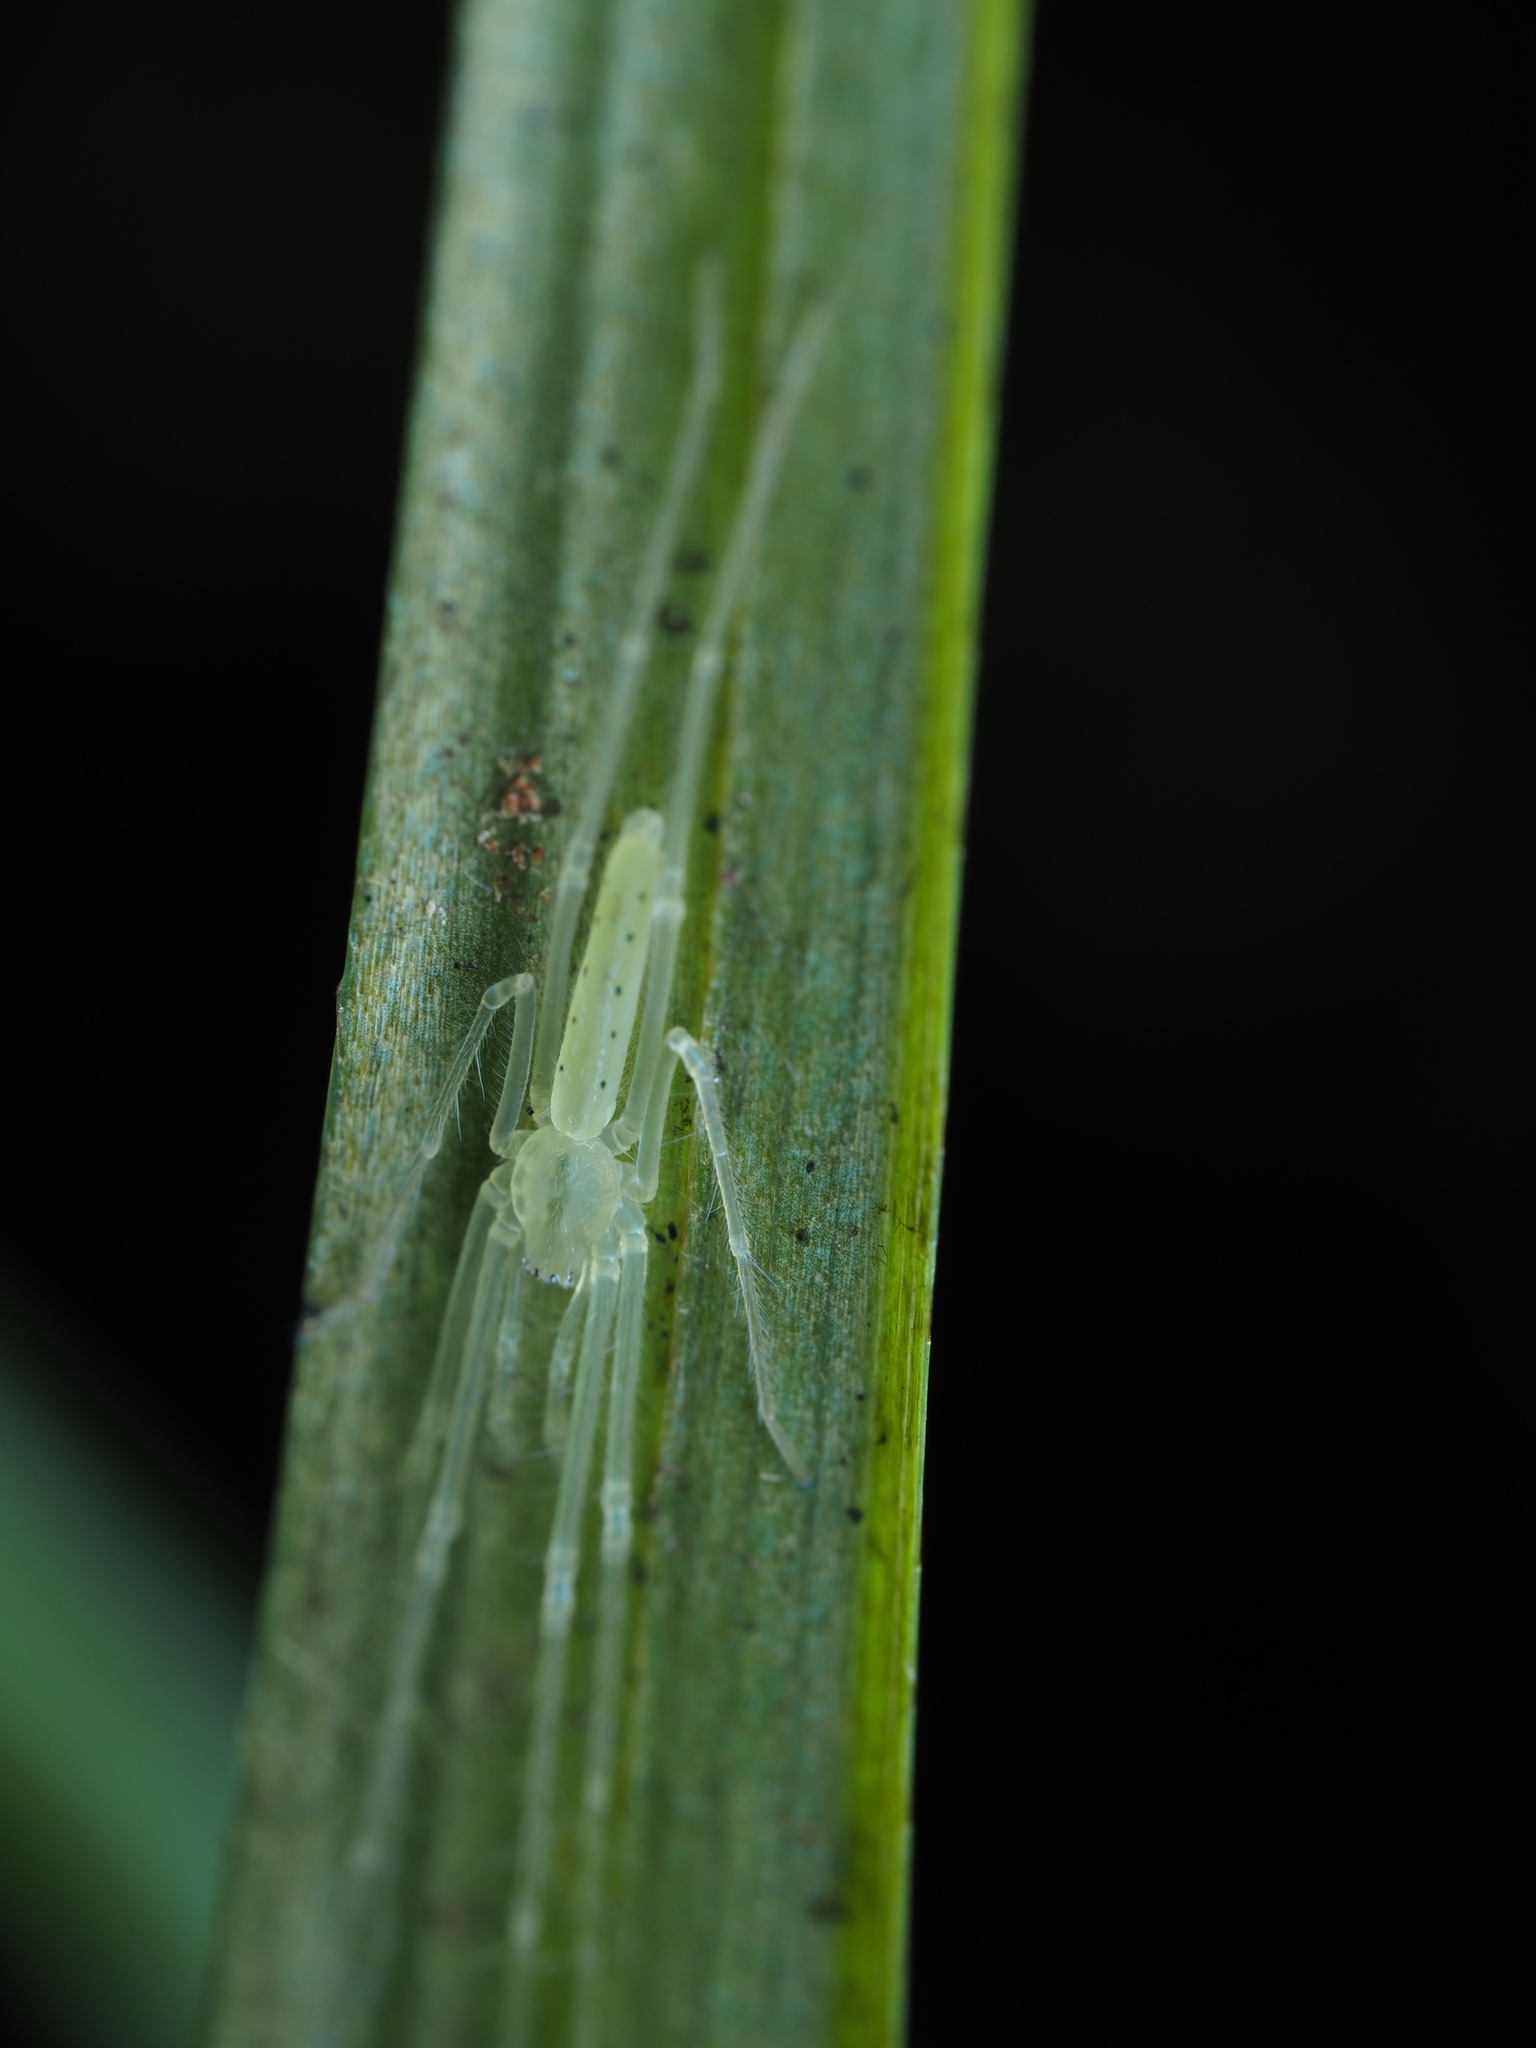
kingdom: Animalia
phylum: Arthropoda
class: Arachnida
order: Araneae
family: Desidae
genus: Ischalea
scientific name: Ischalea spinipes
